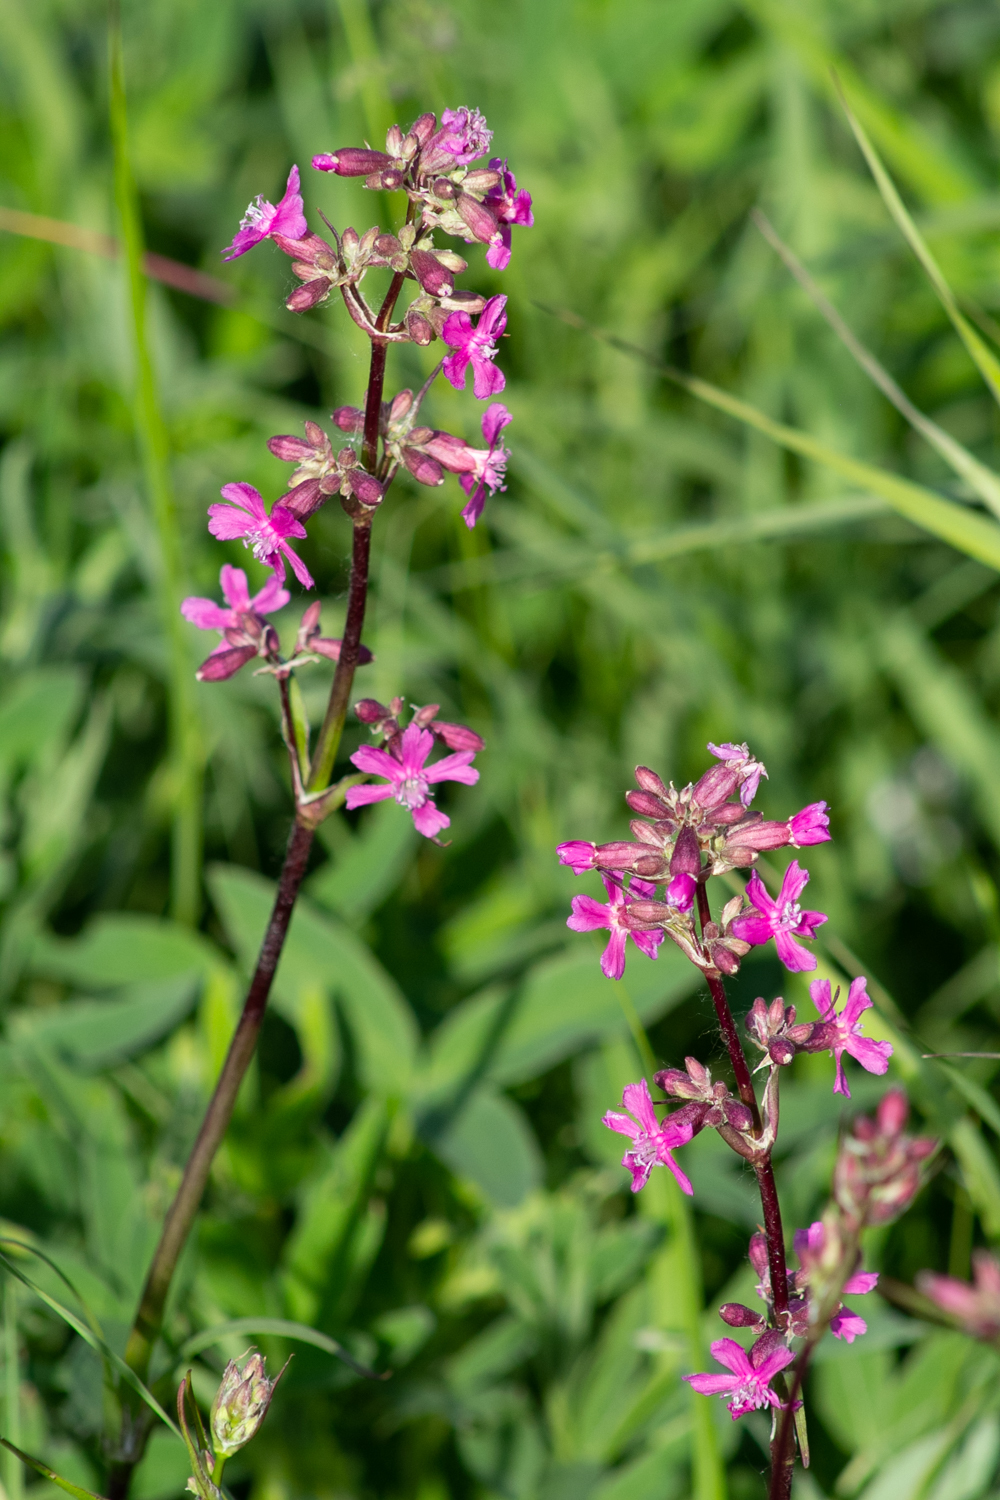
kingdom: Plantae
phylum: Tracheophyta
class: Magnoliopsida
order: Caryophyllales
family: Caryophyllaceae
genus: Viscaria
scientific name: Viscaria vulgaris
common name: Clammy campion
